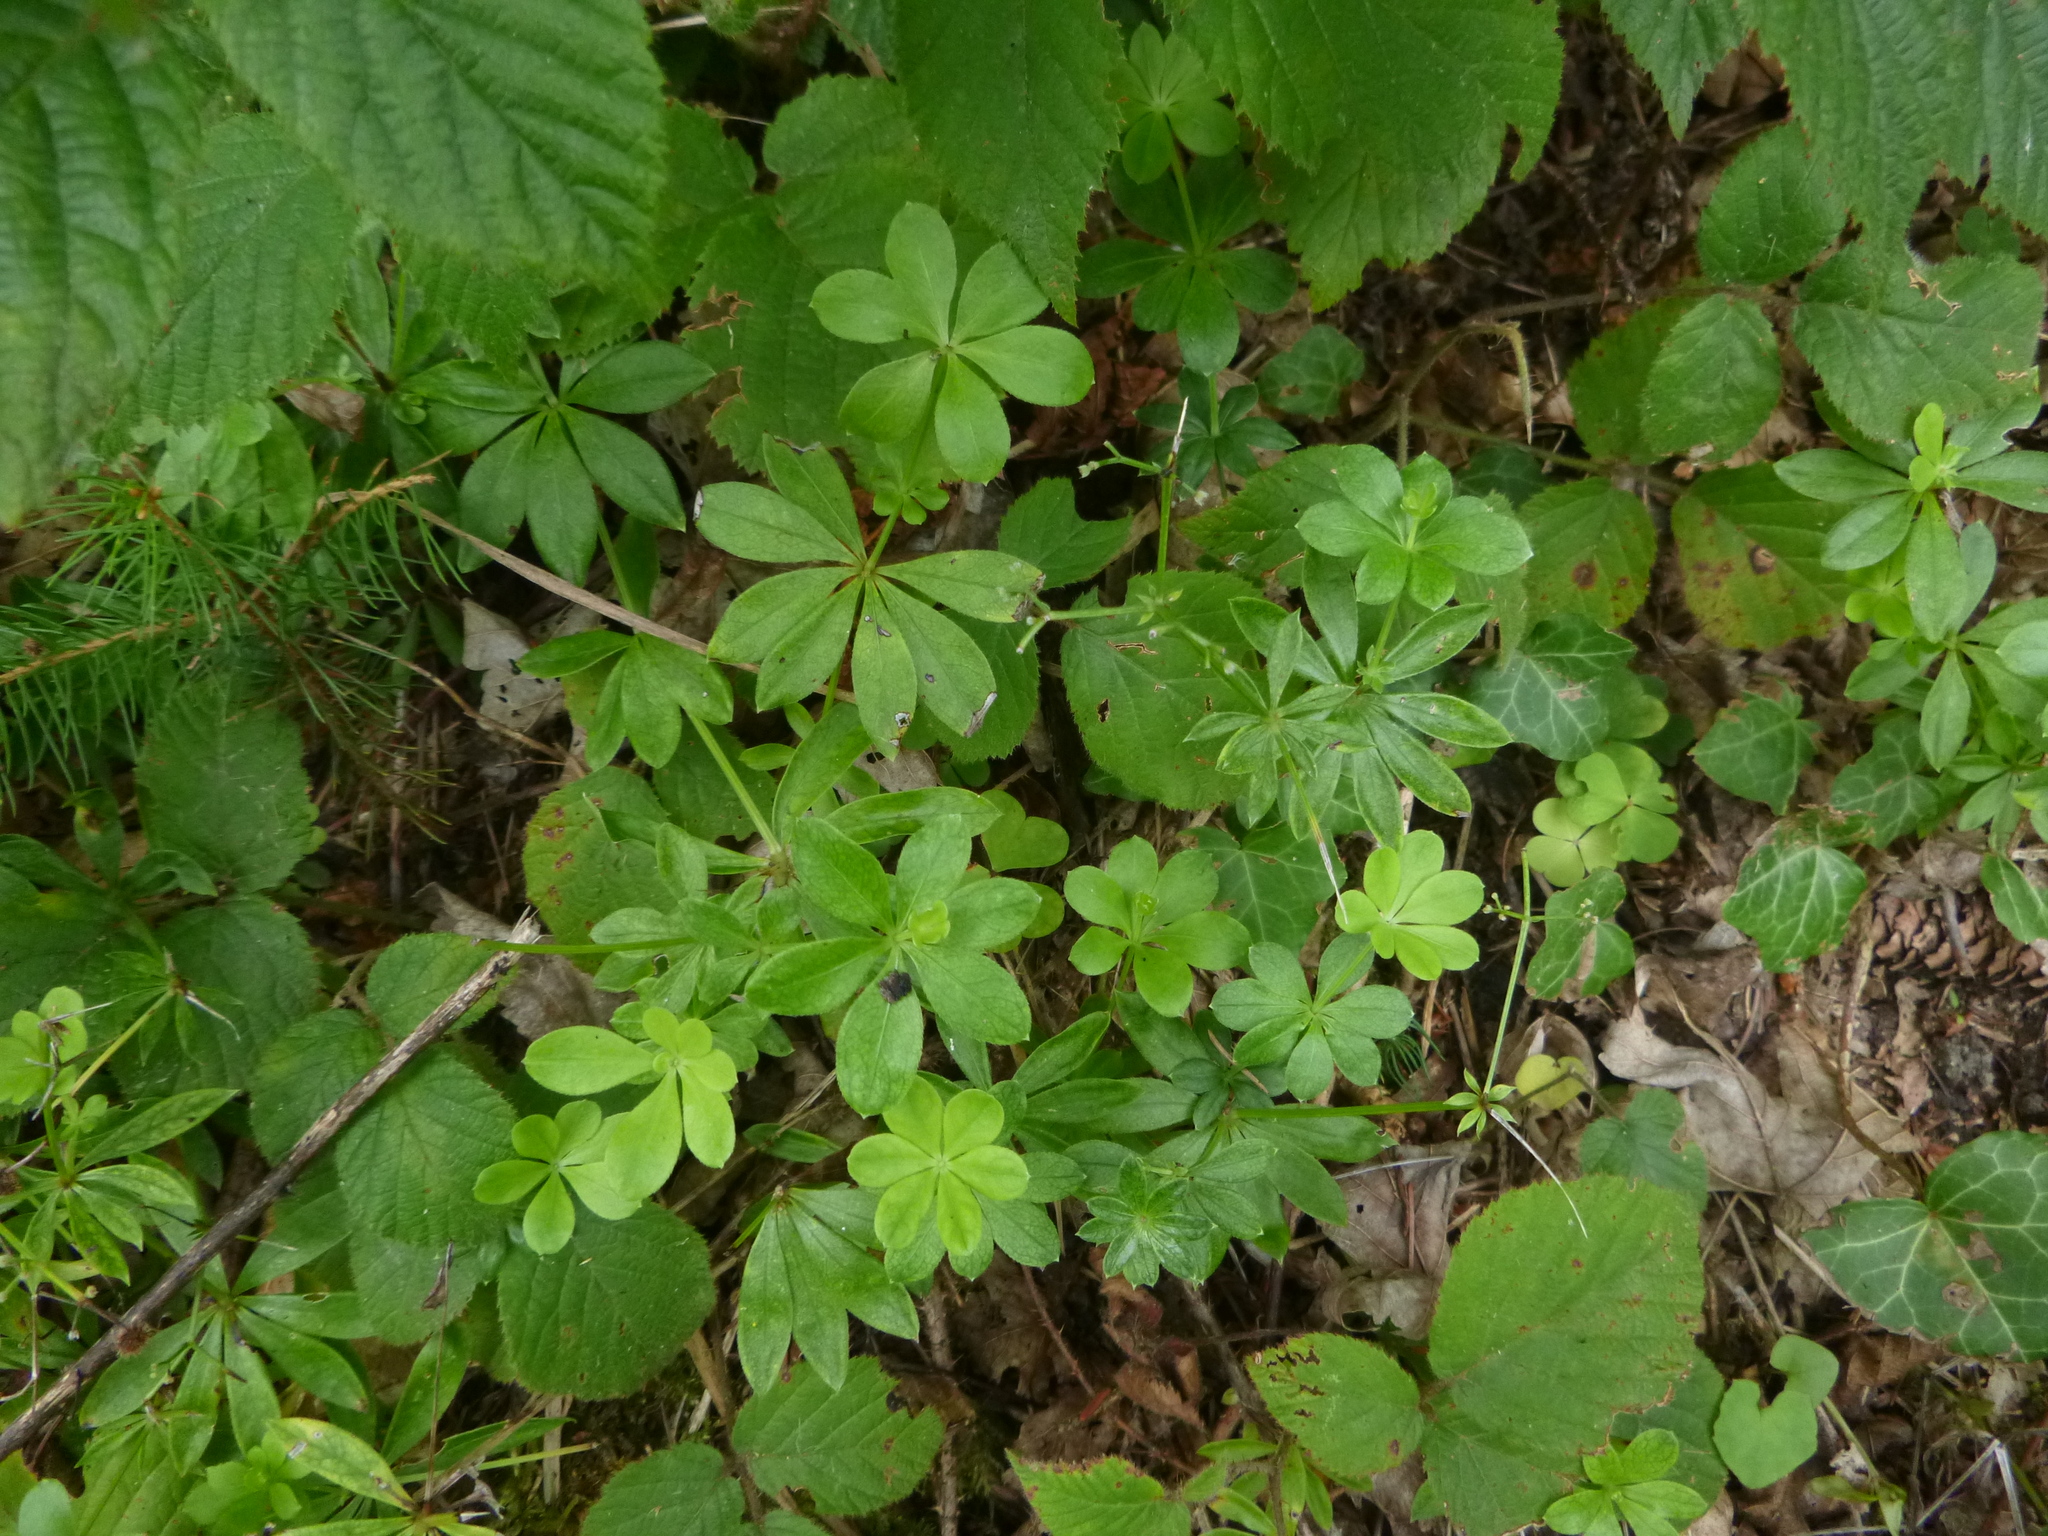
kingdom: Plantae
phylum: Tracheophyta
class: Magnoliopsida
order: Gentianales
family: Rubiaceae
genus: Galium
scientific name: Galium odoratum
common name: Sweet woodruff
